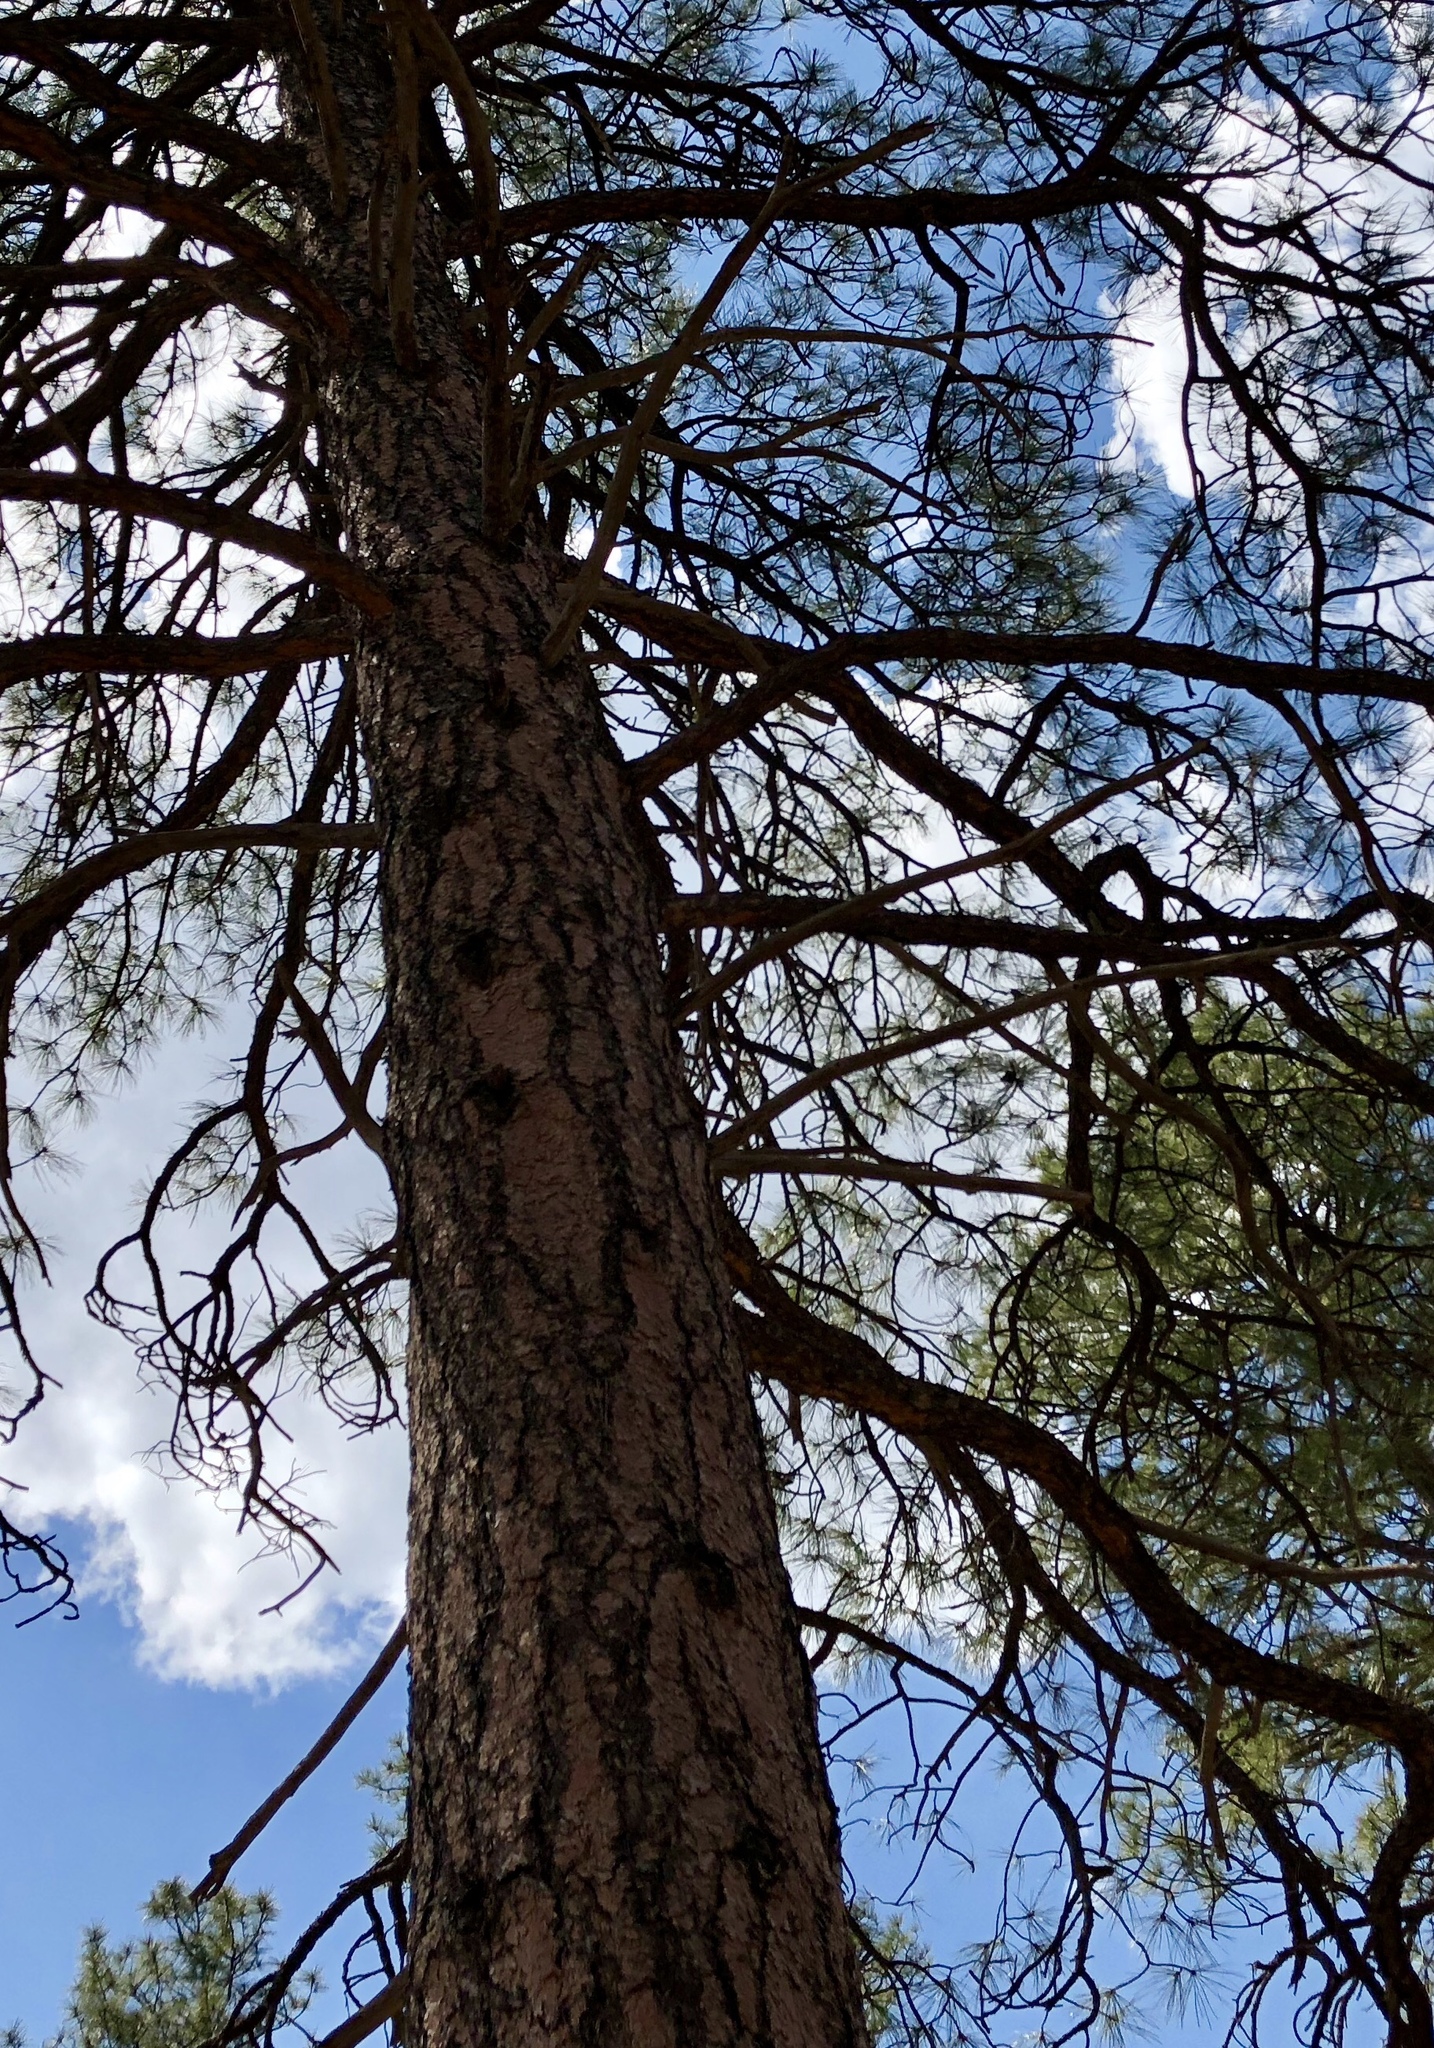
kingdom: Plantae
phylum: Tracheophyta
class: Pinopsida
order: Pinales
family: Pinaceae
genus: Pinus
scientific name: Pinus ponderosa
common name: Western yellow-pine
